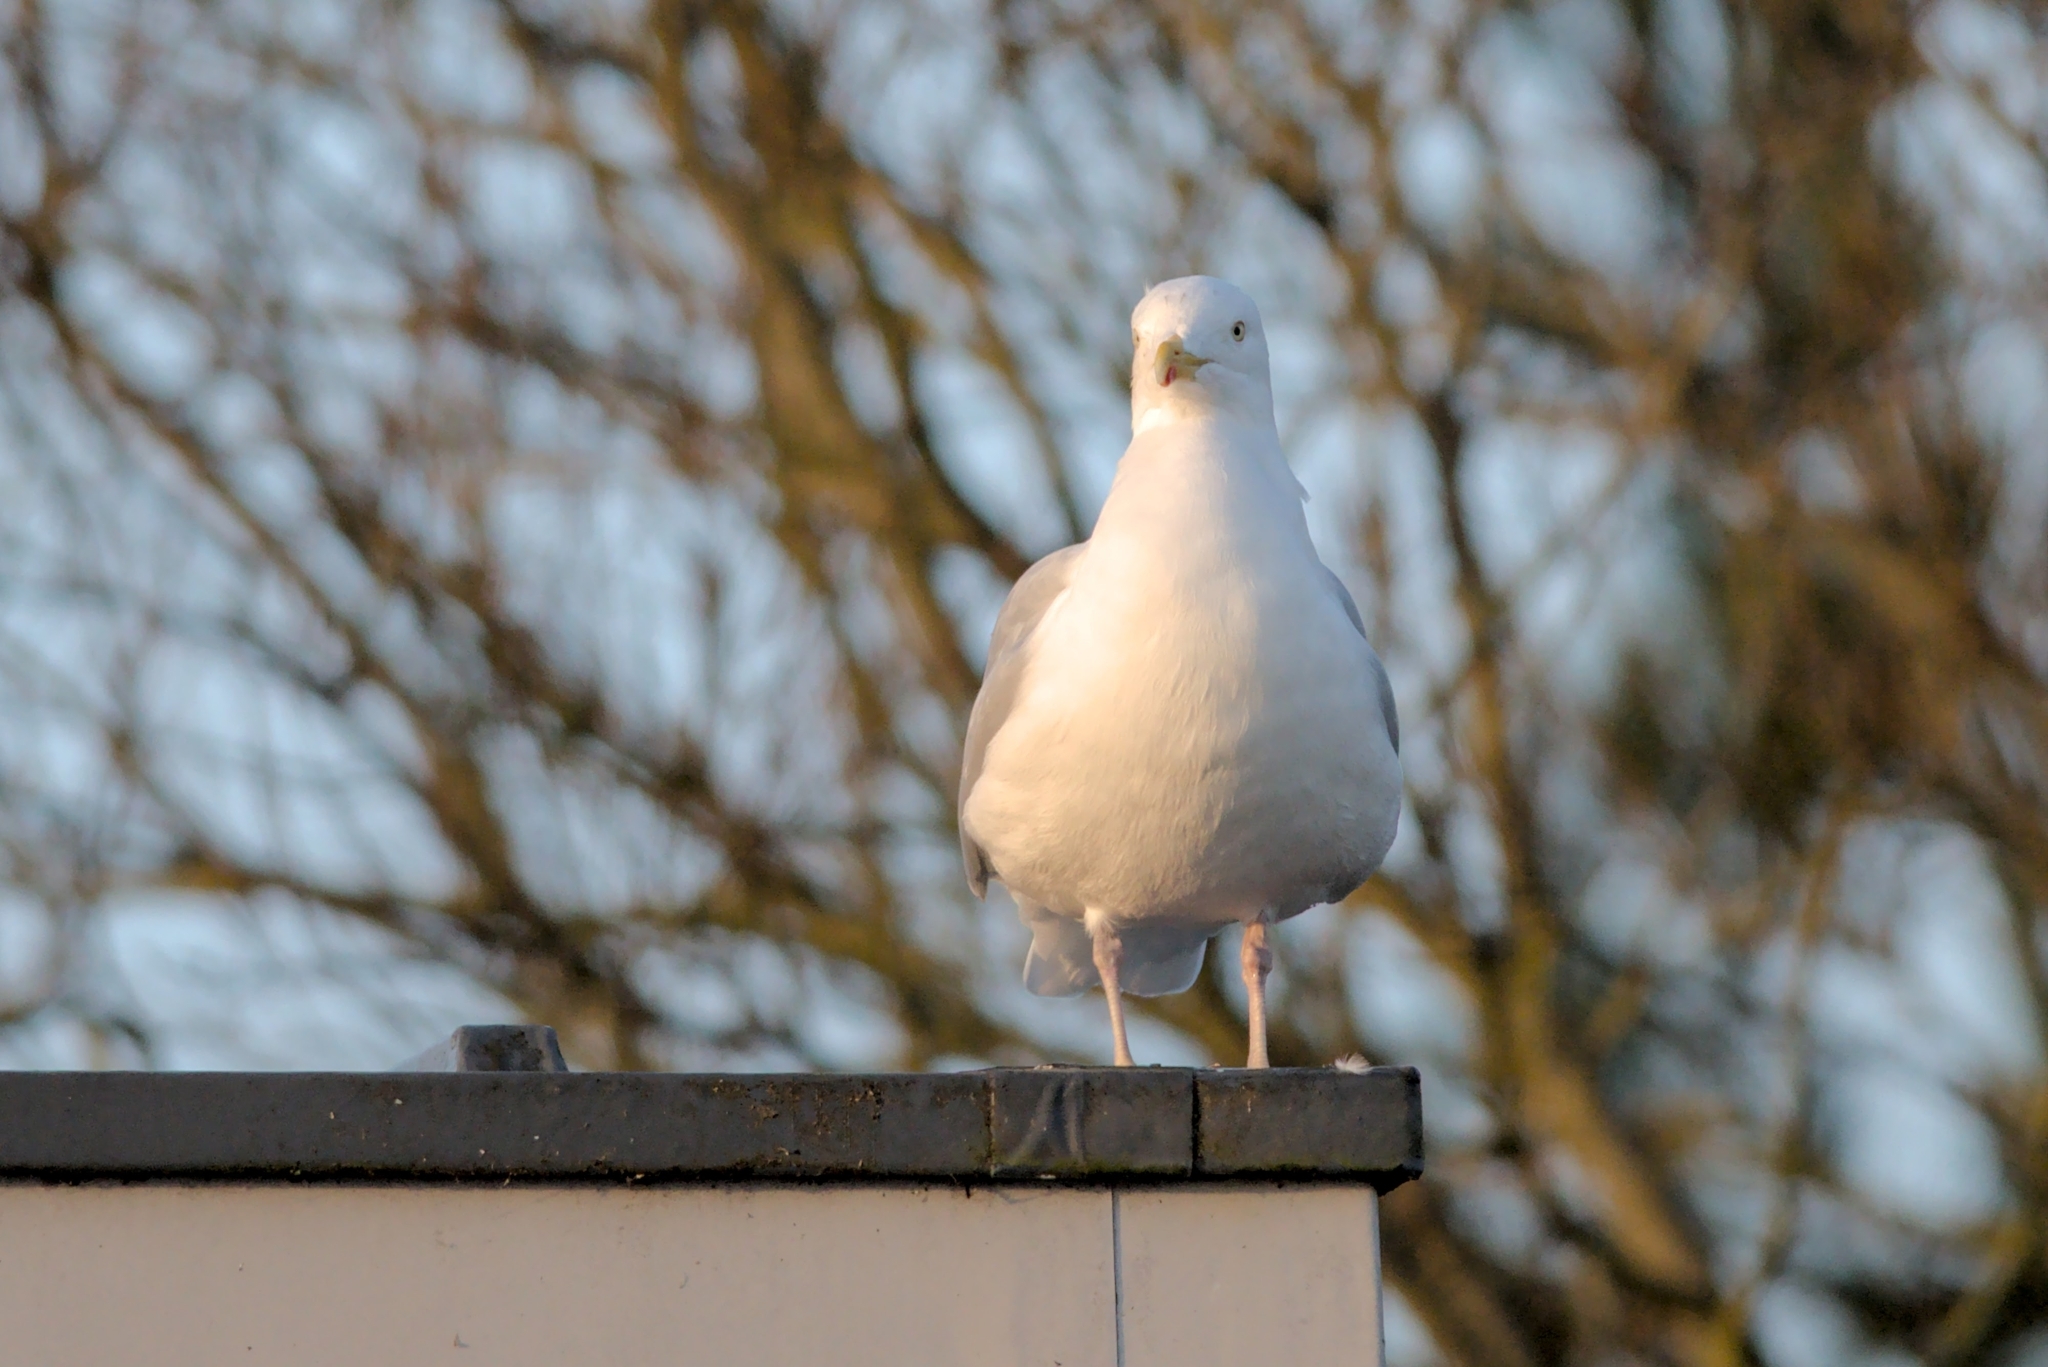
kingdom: Animalia
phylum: Chordata
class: Aves
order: Charadriiformes
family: Laridae
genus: Larus
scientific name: Larus argentatus
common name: Herring gull
